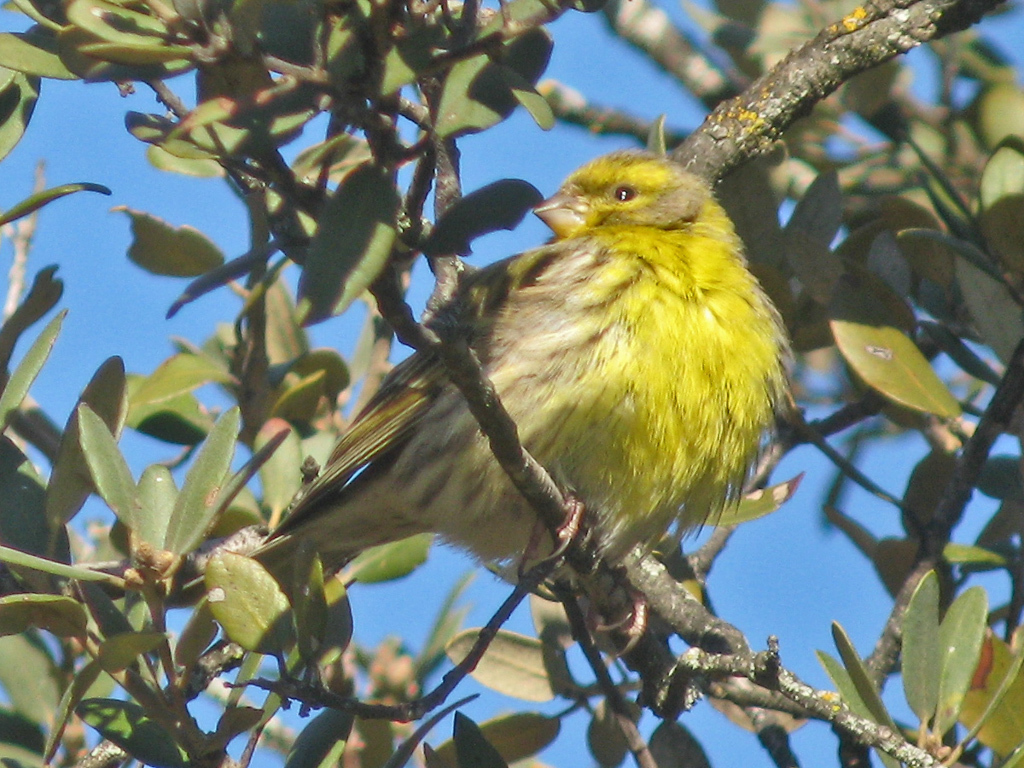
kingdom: Animalia
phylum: Chordata
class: Aves
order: Passeriformes
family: Fringillidae
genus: Serinus
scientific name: Serinus serinus
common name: European serin
